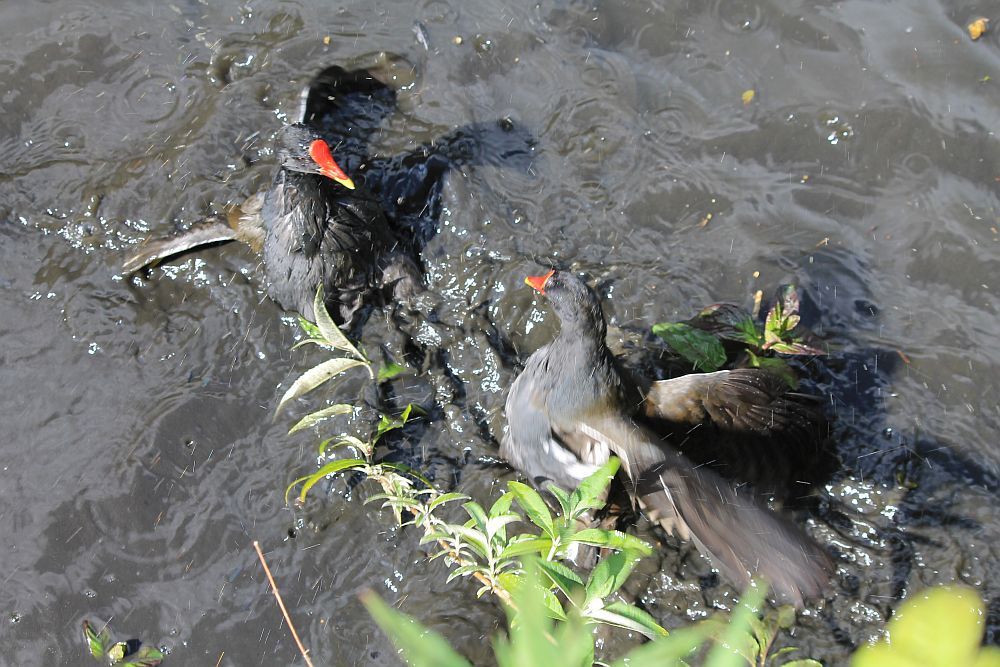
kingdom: Animalia
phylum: Chordata
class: Aves
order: Gruiformes
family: Rallidae
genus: Gallinula
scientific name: Gallinula chloropus
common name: Common moorhen
